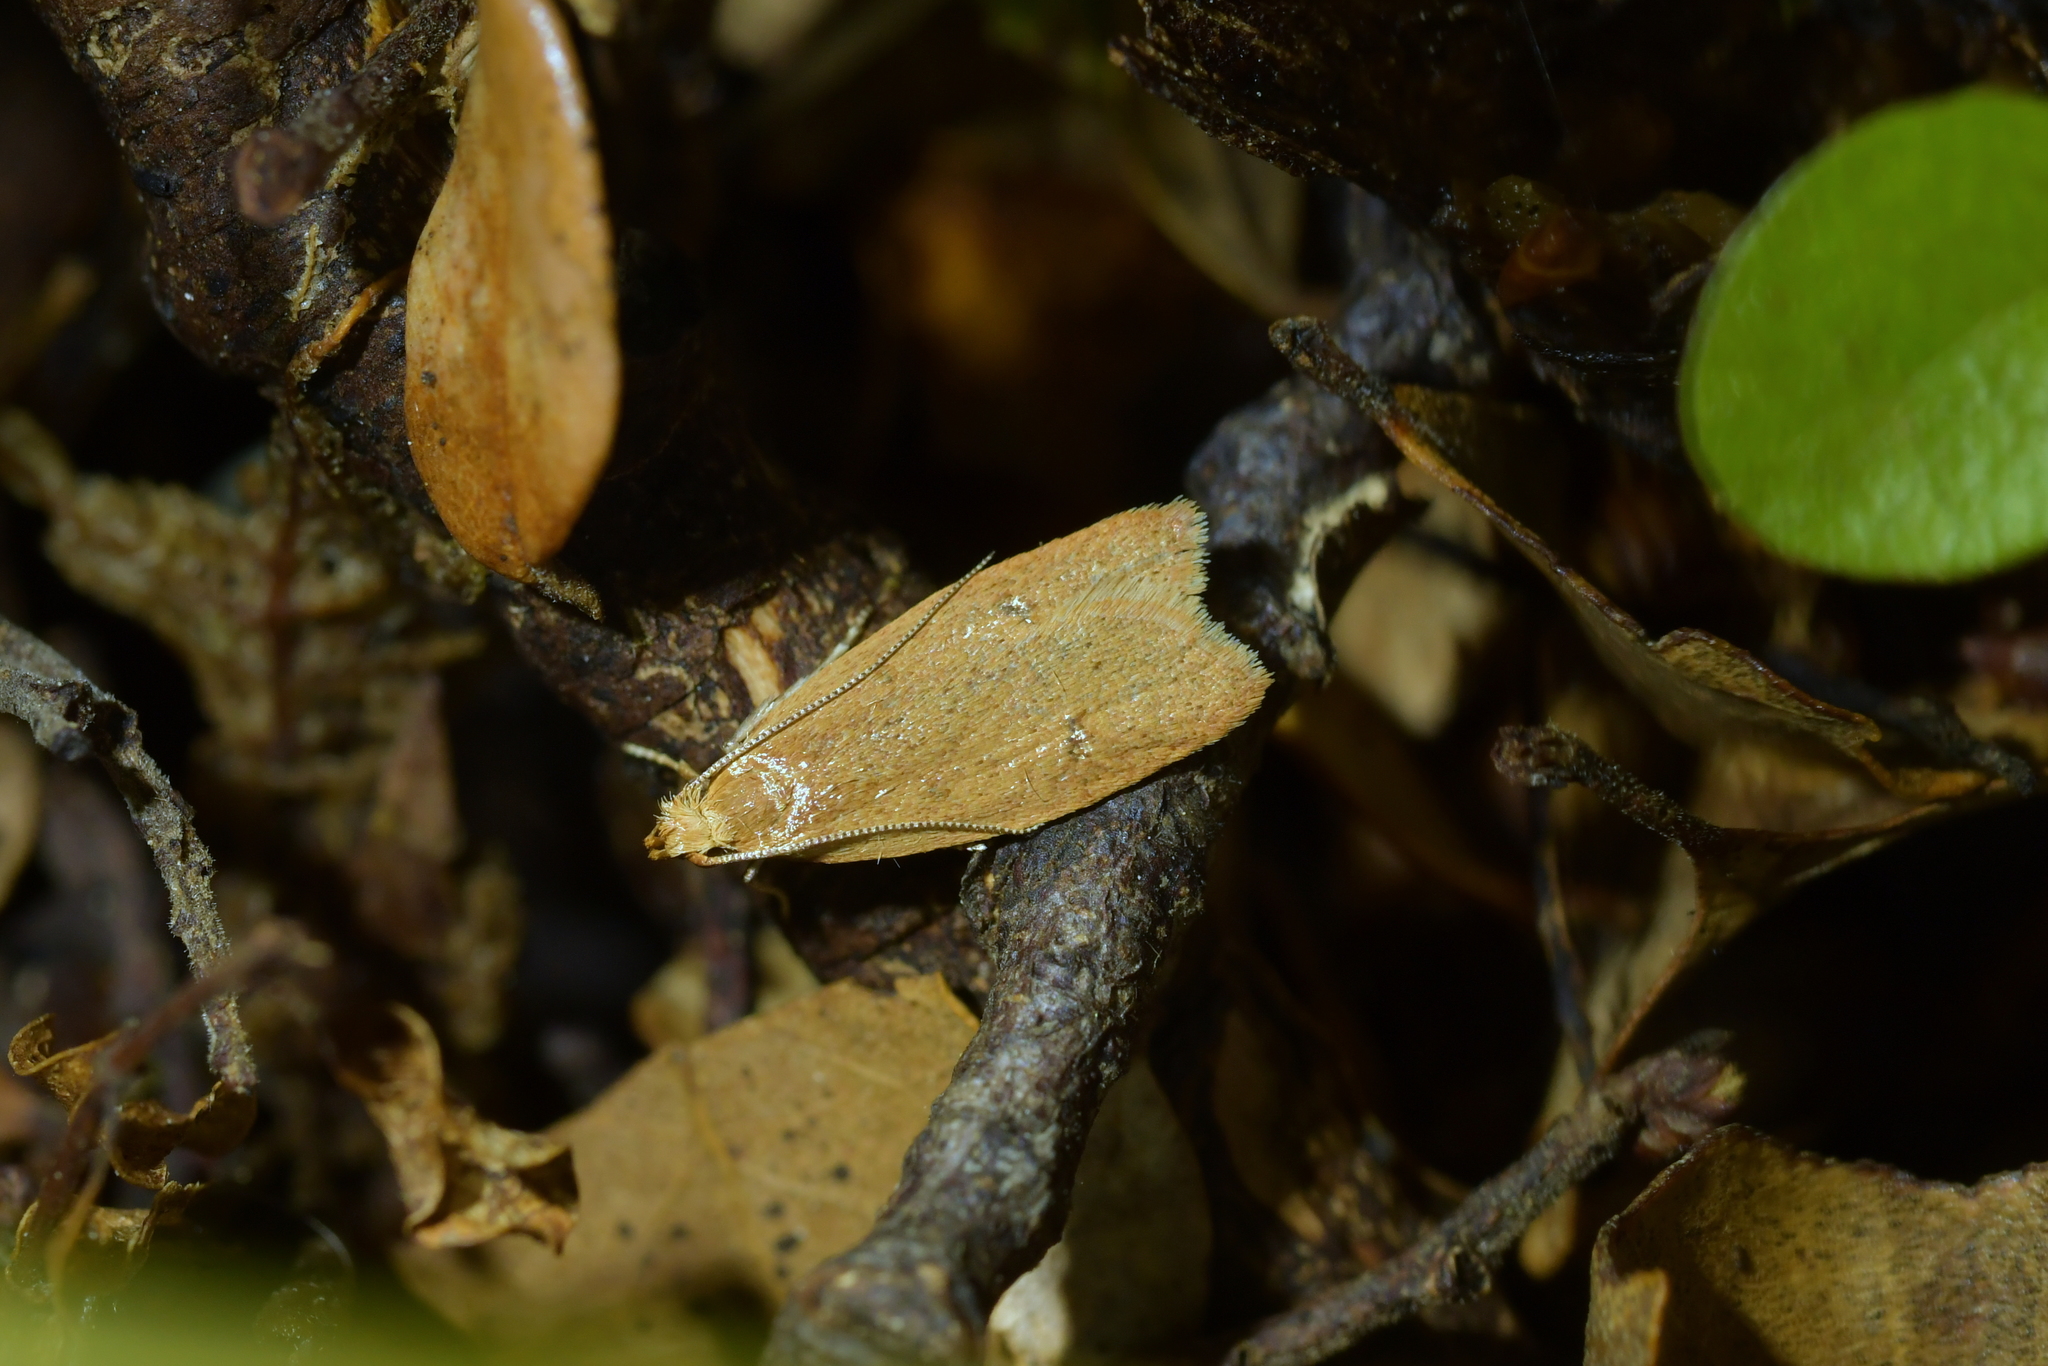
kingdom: Animalia
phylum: Arthropoda
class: Insecta
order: Lepidoptera
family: Oecophoridae
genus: Gymnobathra
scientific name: Gymnobathra sarcoxantha
